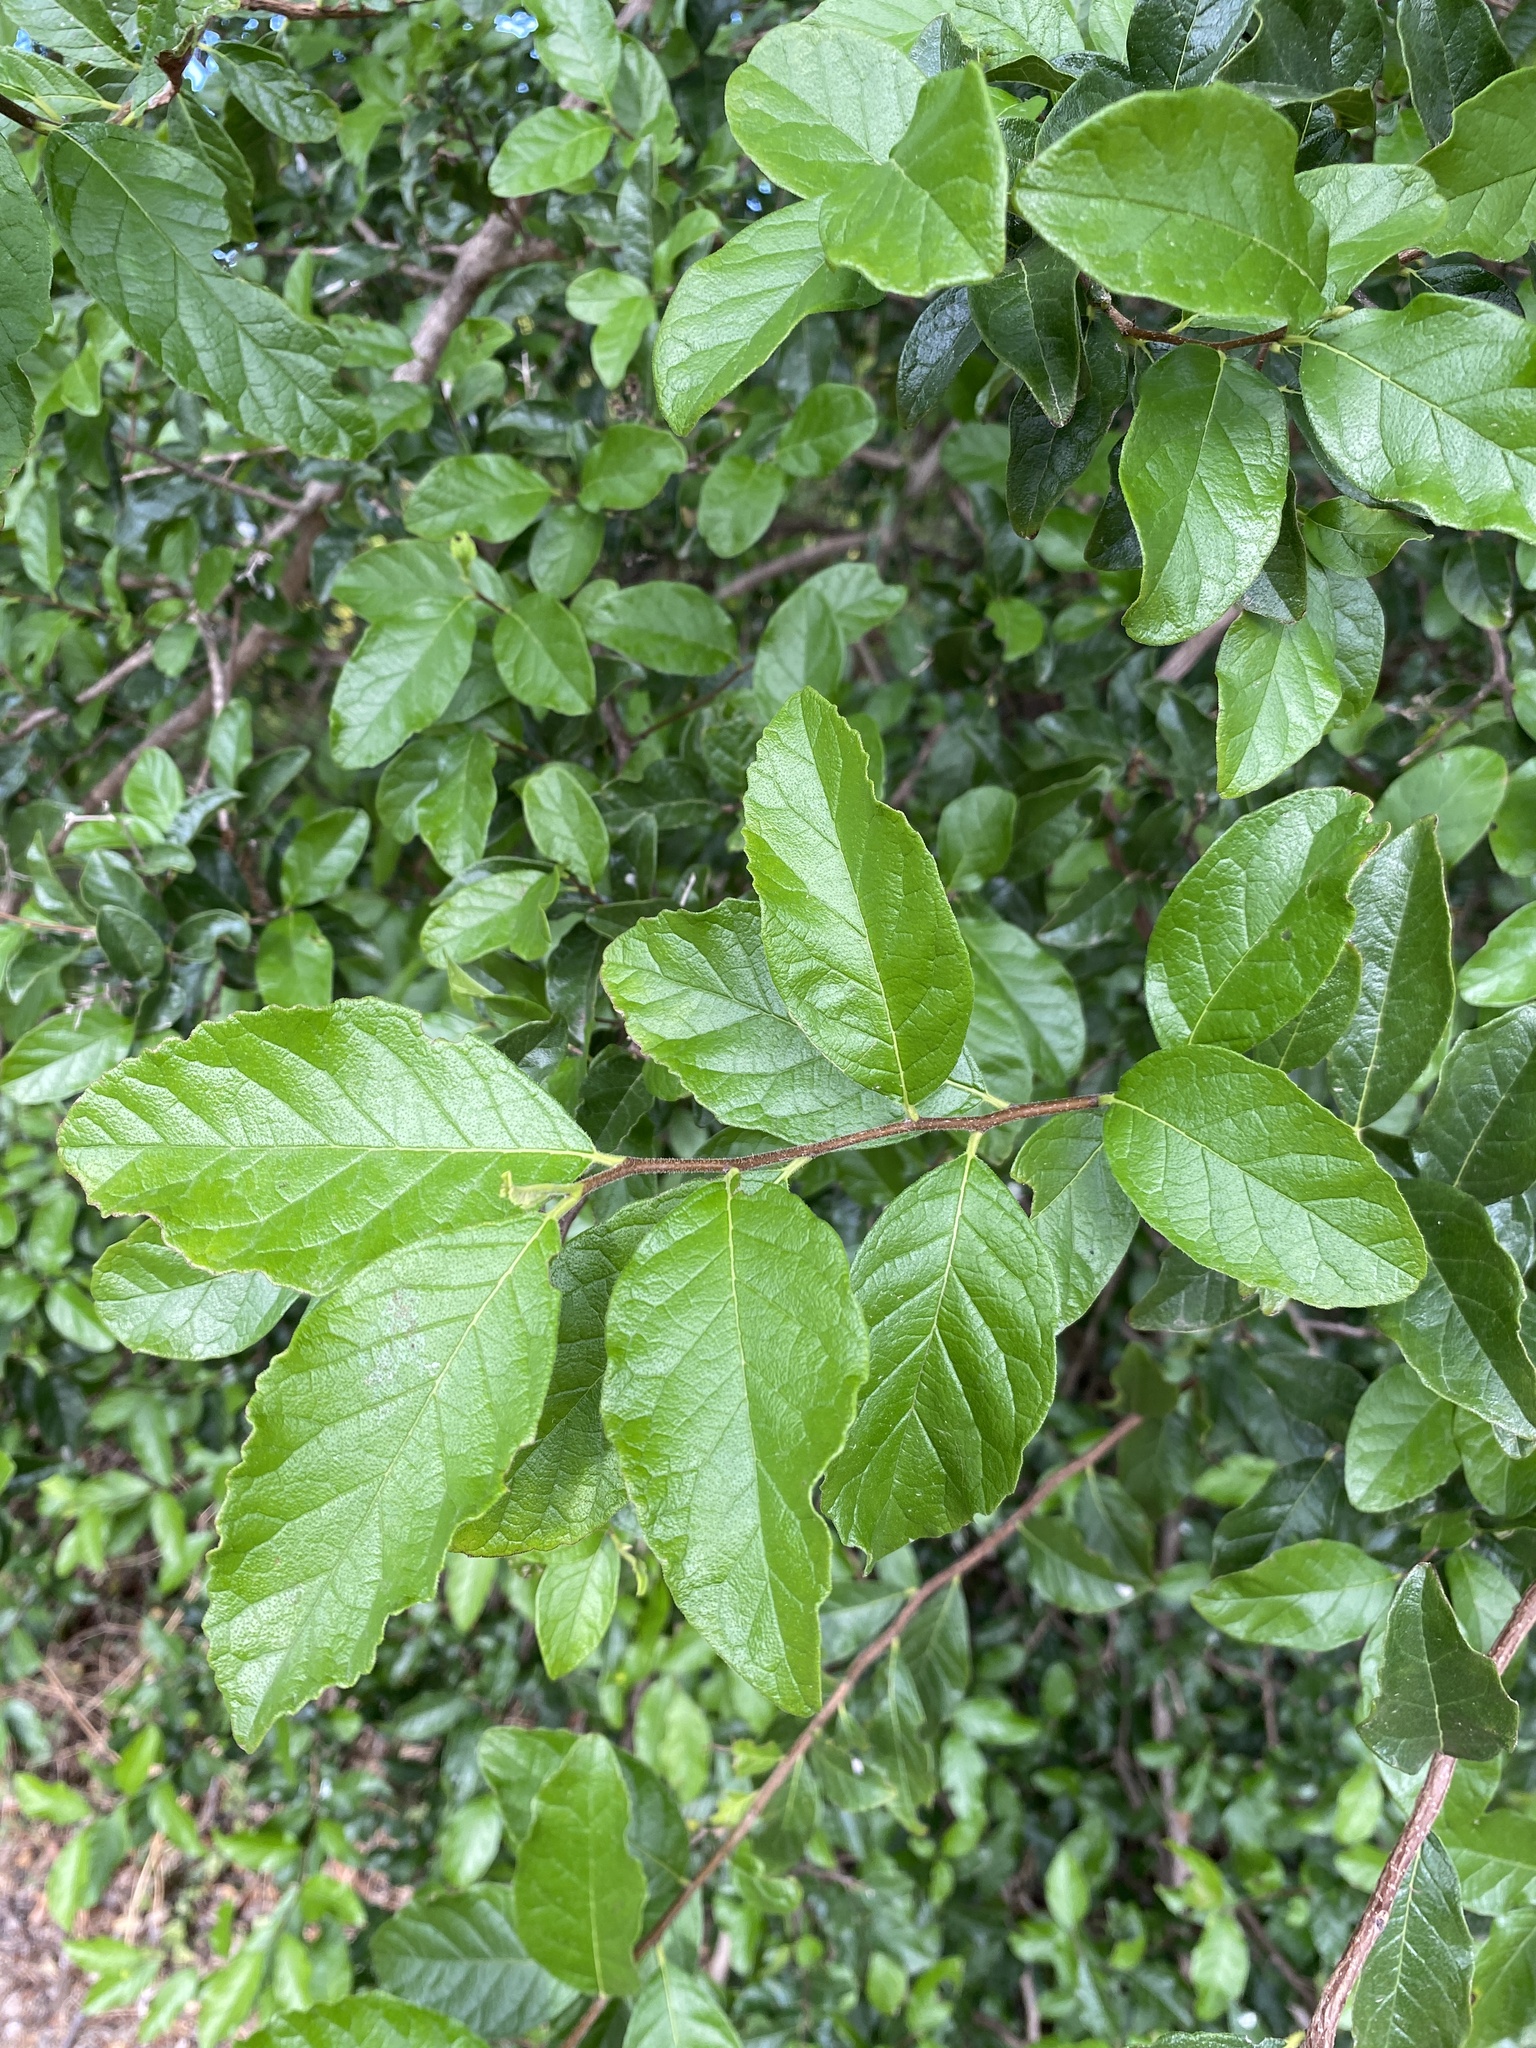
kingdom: Plantae
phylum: Tracheophyta
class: Magnoliopsida
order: Boraginales
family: Ehretiaceae
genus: Ehretia
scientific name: Ehretia anacua
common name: Sugarberry
